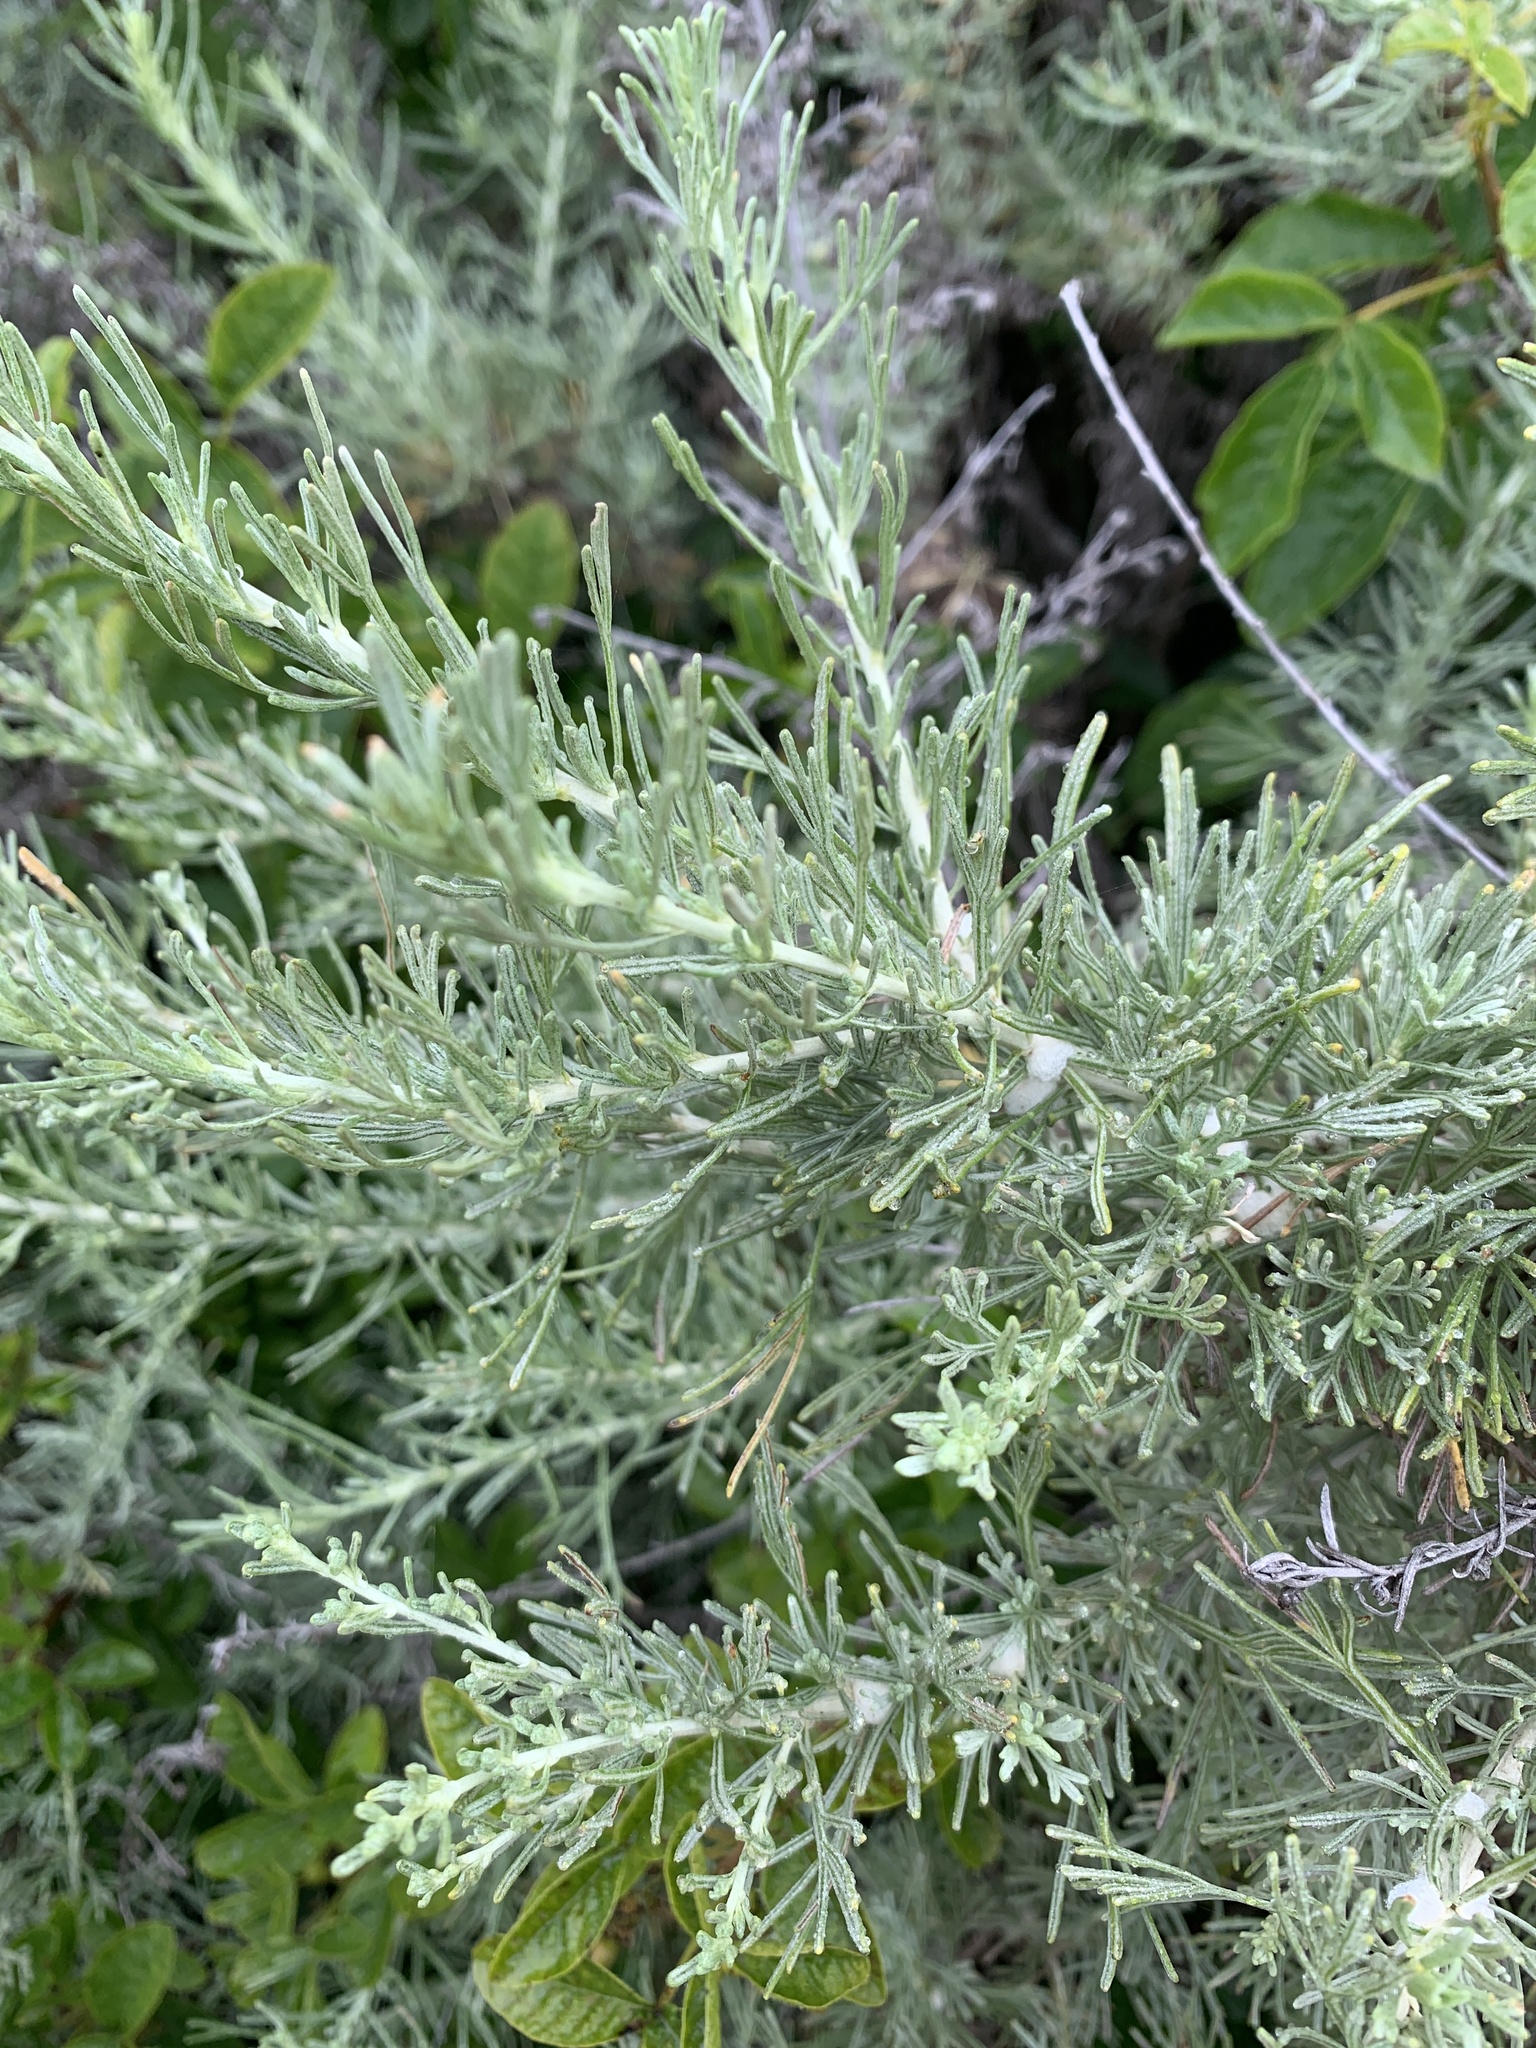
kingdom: Plantae
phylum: Tracheophyta
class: Magnoliopsida
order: Asterales
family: Asteraceae
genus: Artemisia
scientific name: Artemisia californica
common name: California sagebrush
